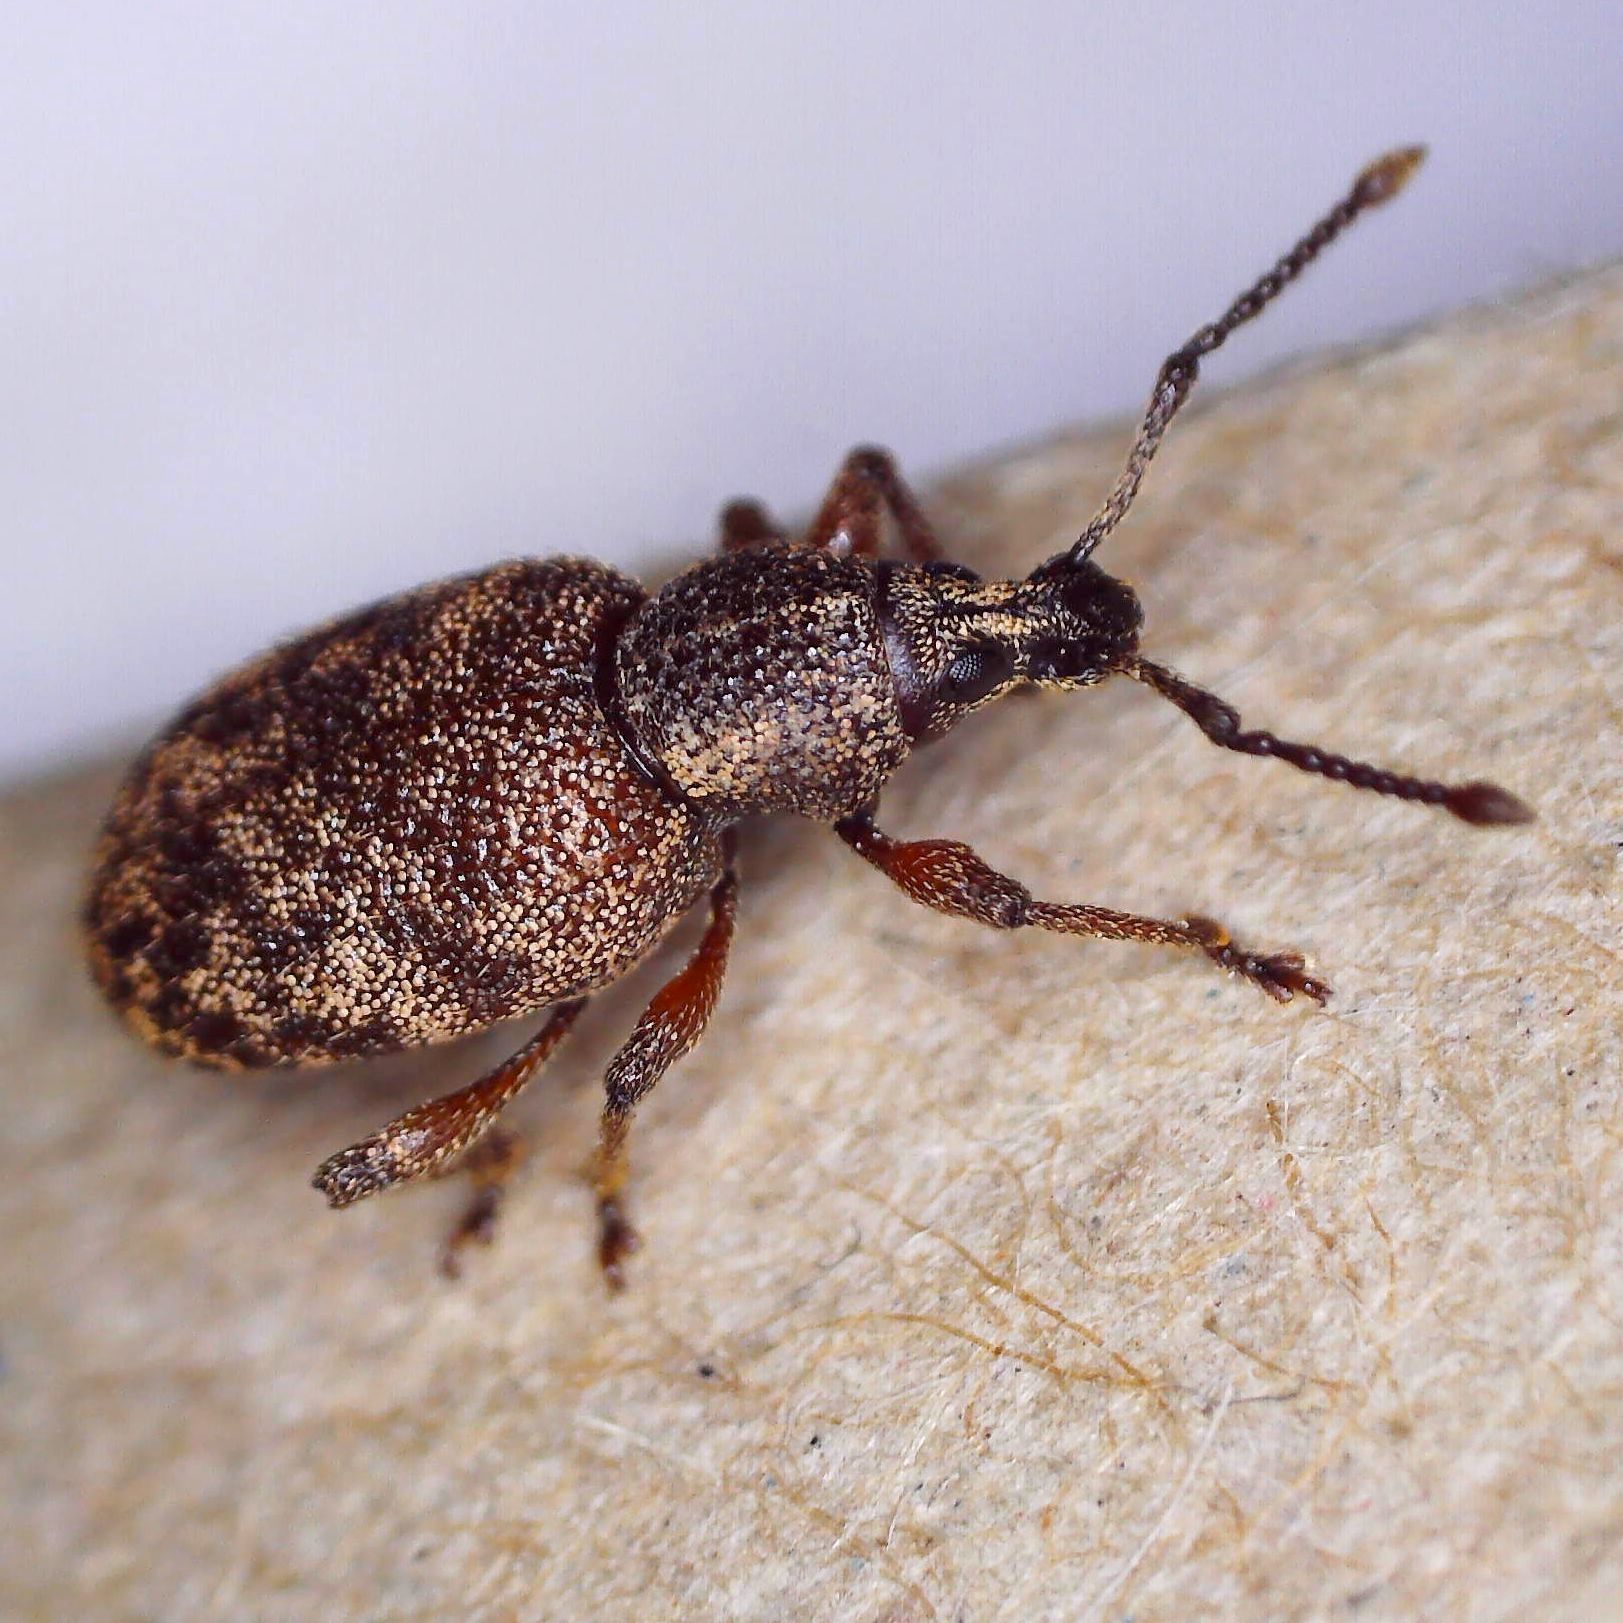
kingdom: Animalia
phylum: Arthropoda
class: Insecta
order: Coleoptera
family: Curculionidae
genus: Otiorhynchus
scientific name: Otiorhynchus singularis
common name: Clay-coloured weevil
